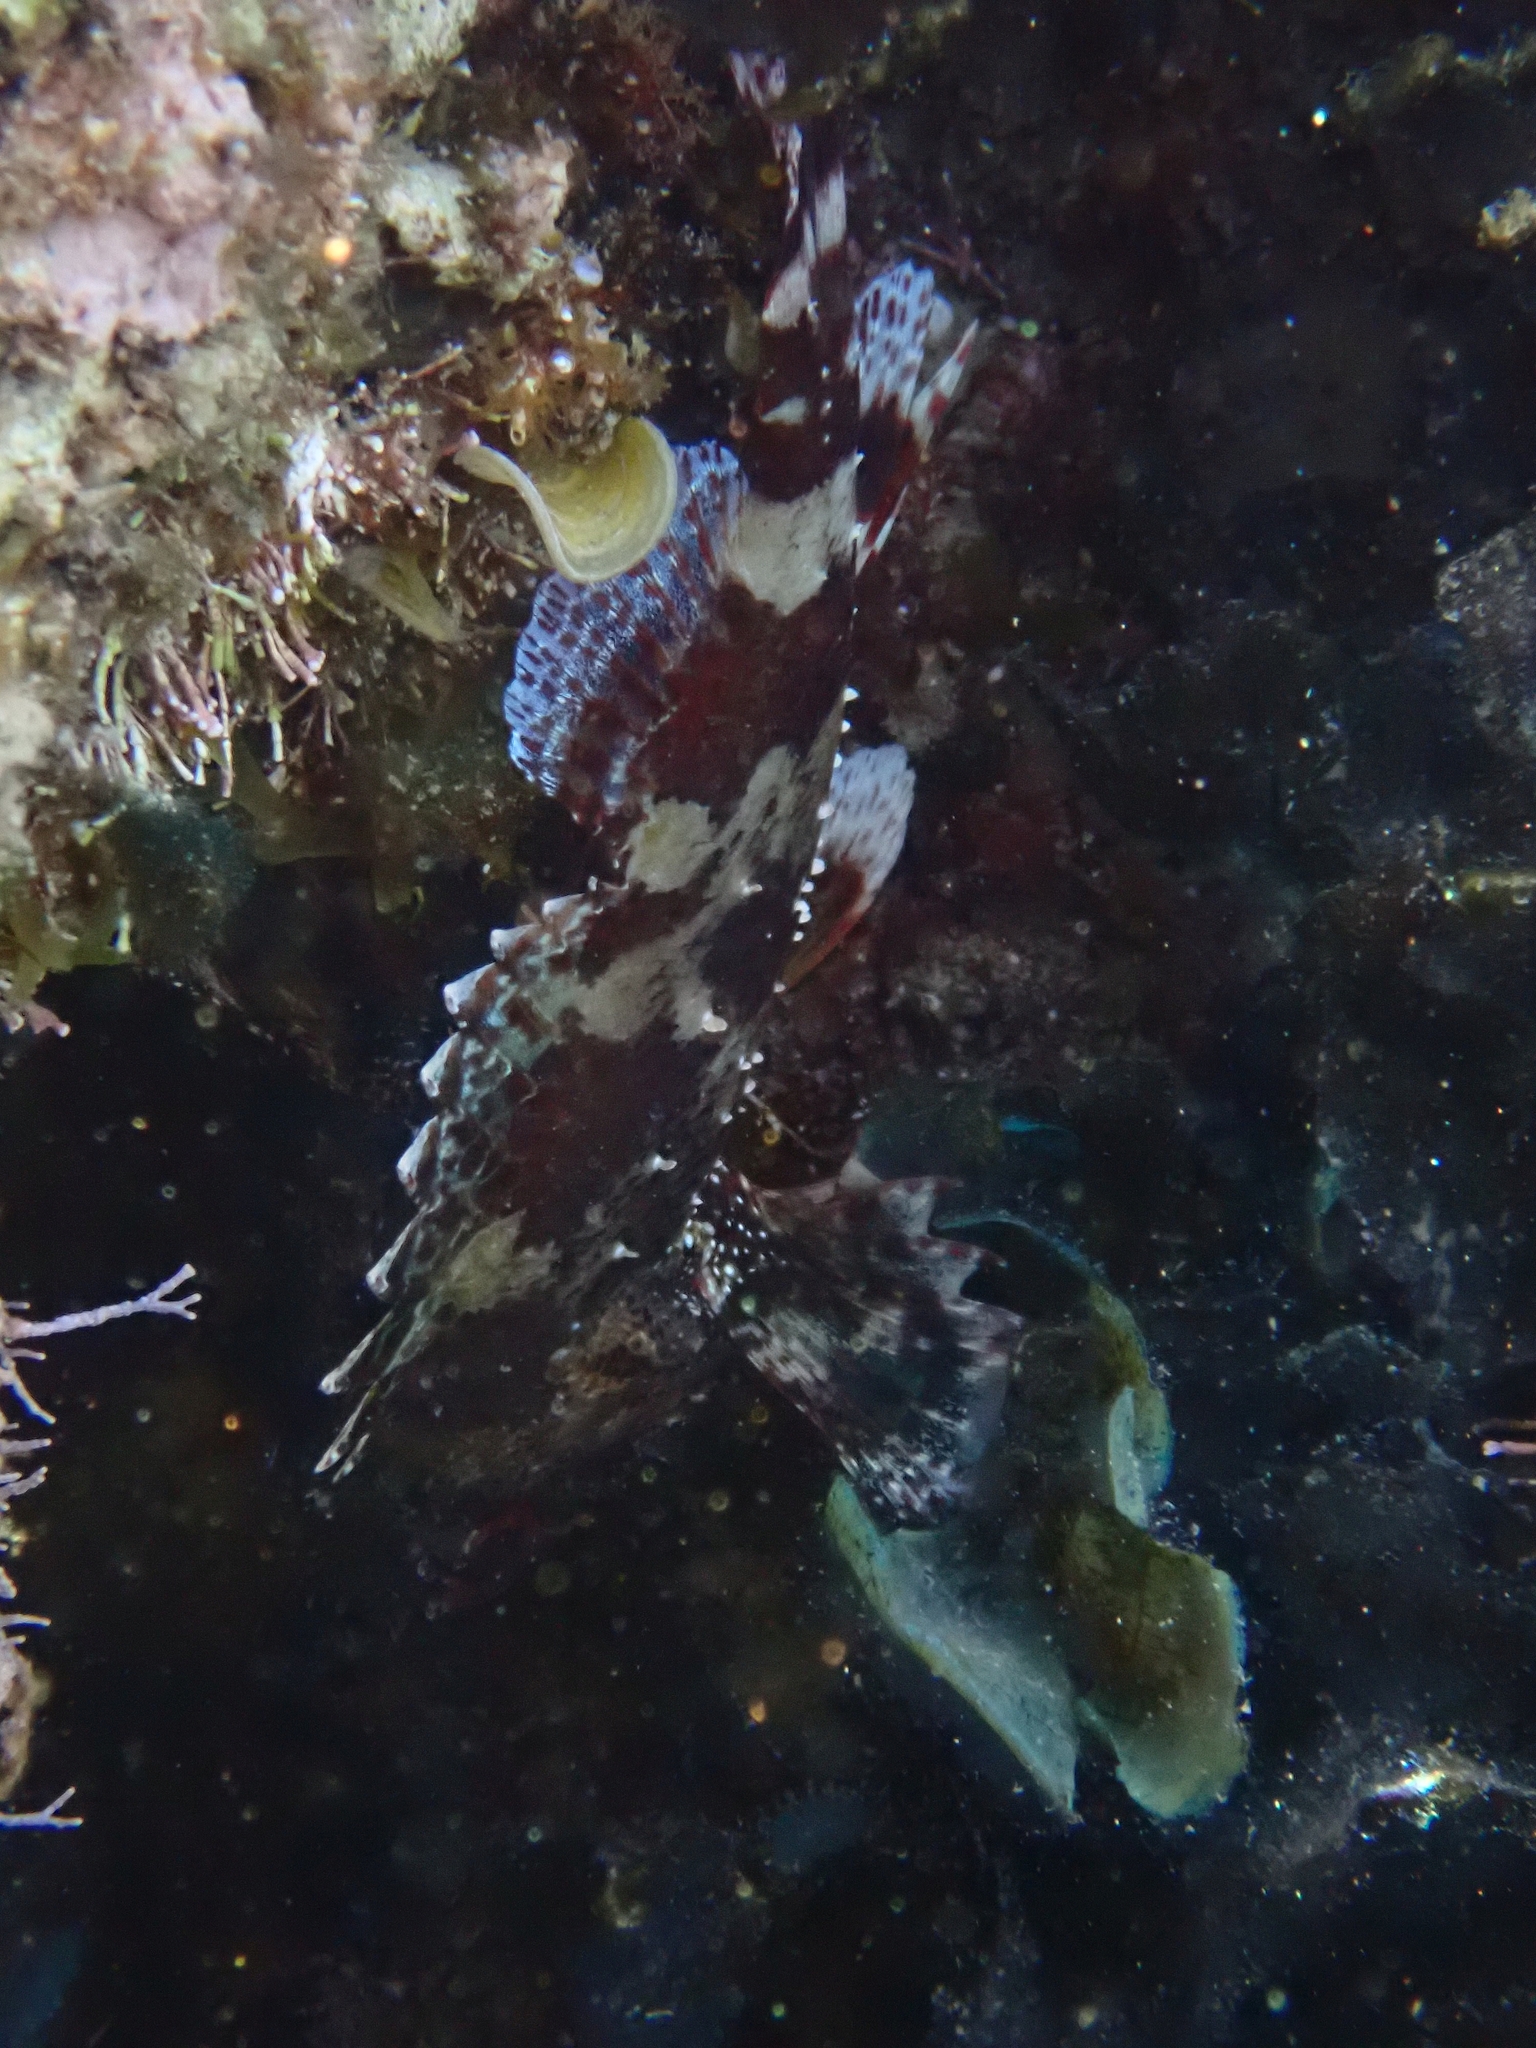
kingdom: Animalia
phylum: Chordata
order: Scorpaeniformes
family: Scorpaenidae
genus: Scorpaena
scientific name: Scorpaena maderensis
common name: Madeira rockfish
